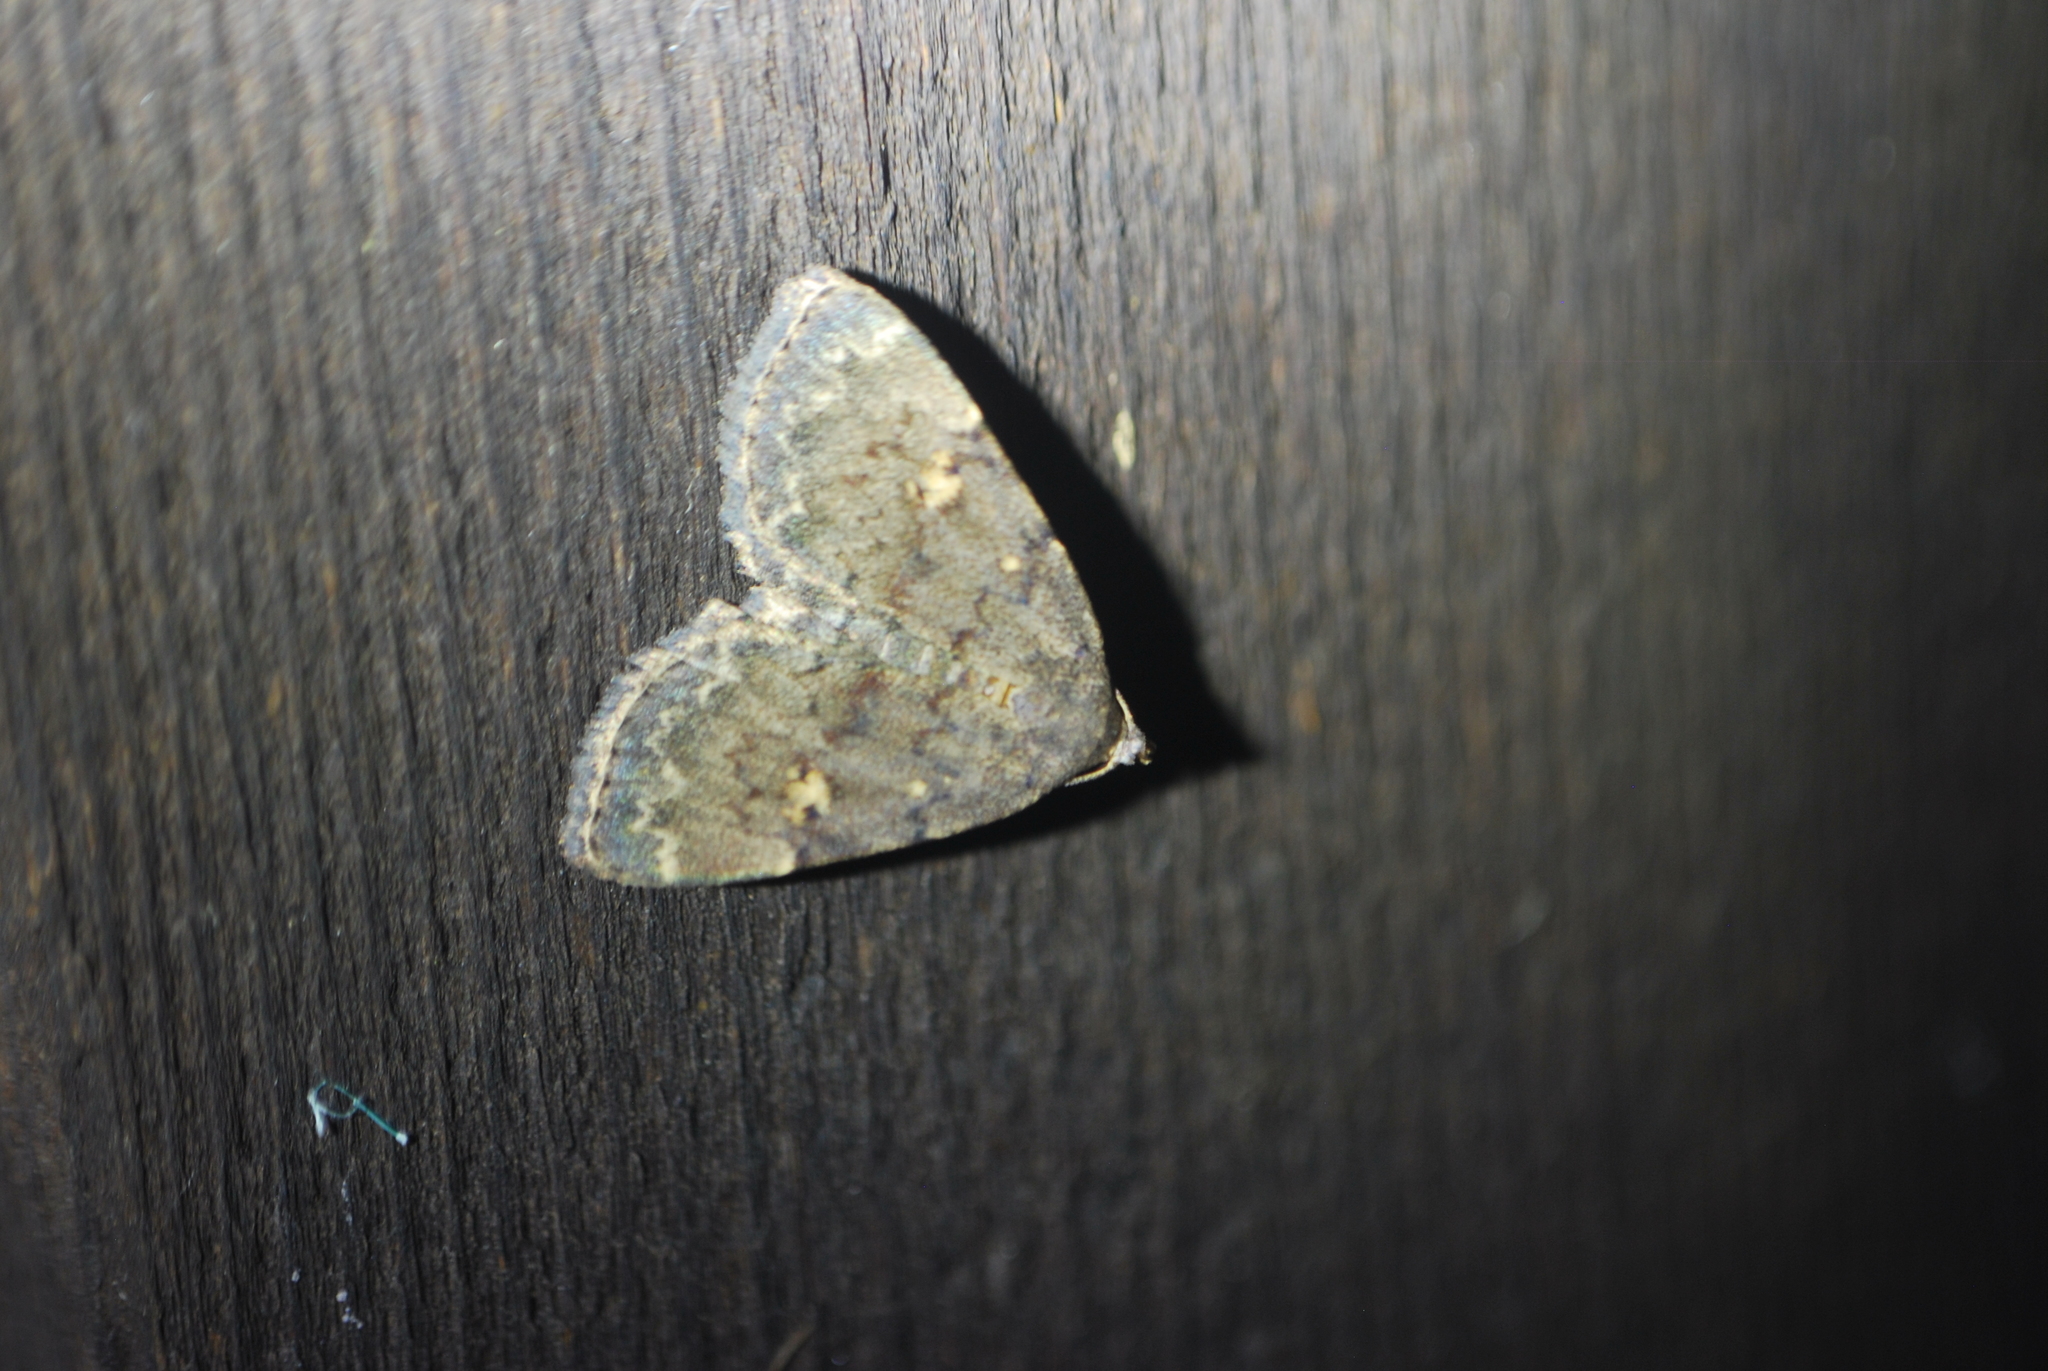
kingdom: Animalia
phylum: Arthropoda
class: Insecta
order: Lepidoptera
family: Erebidae
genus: Idia
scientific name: Idia aemula
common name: Common idia moth
